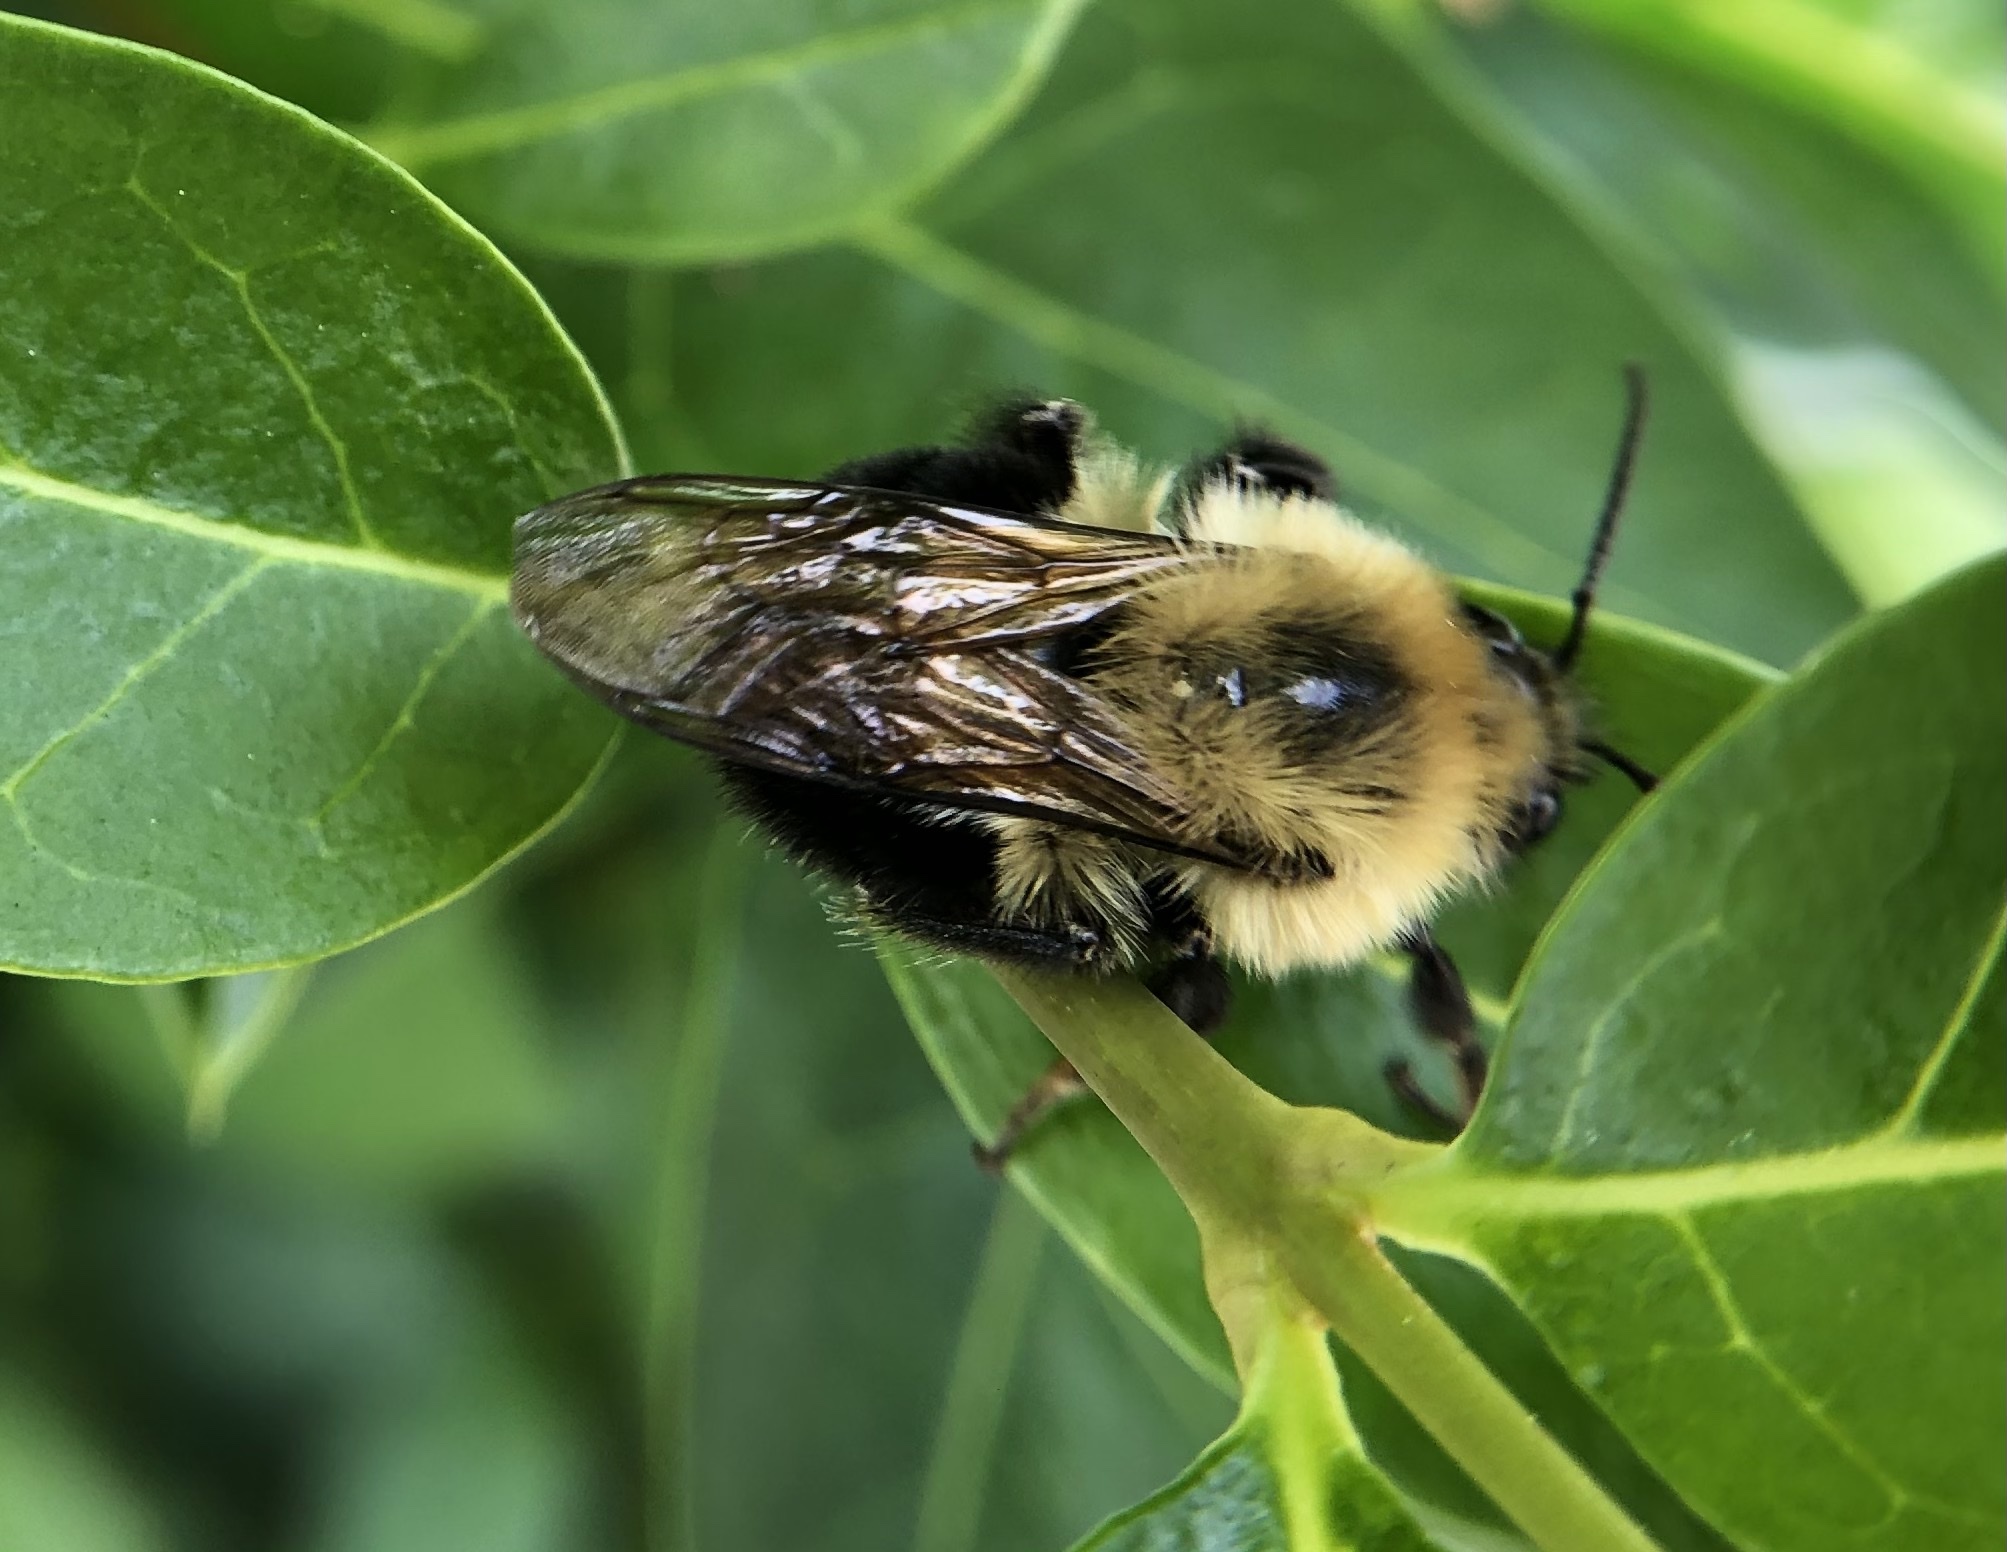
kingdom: Animalia
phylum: Arthropoda
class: Insecta
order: Hymenoptera
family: Apidae
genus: Bombus
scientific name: Bombus bimaculatus
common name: Two-spotted bumble bee
